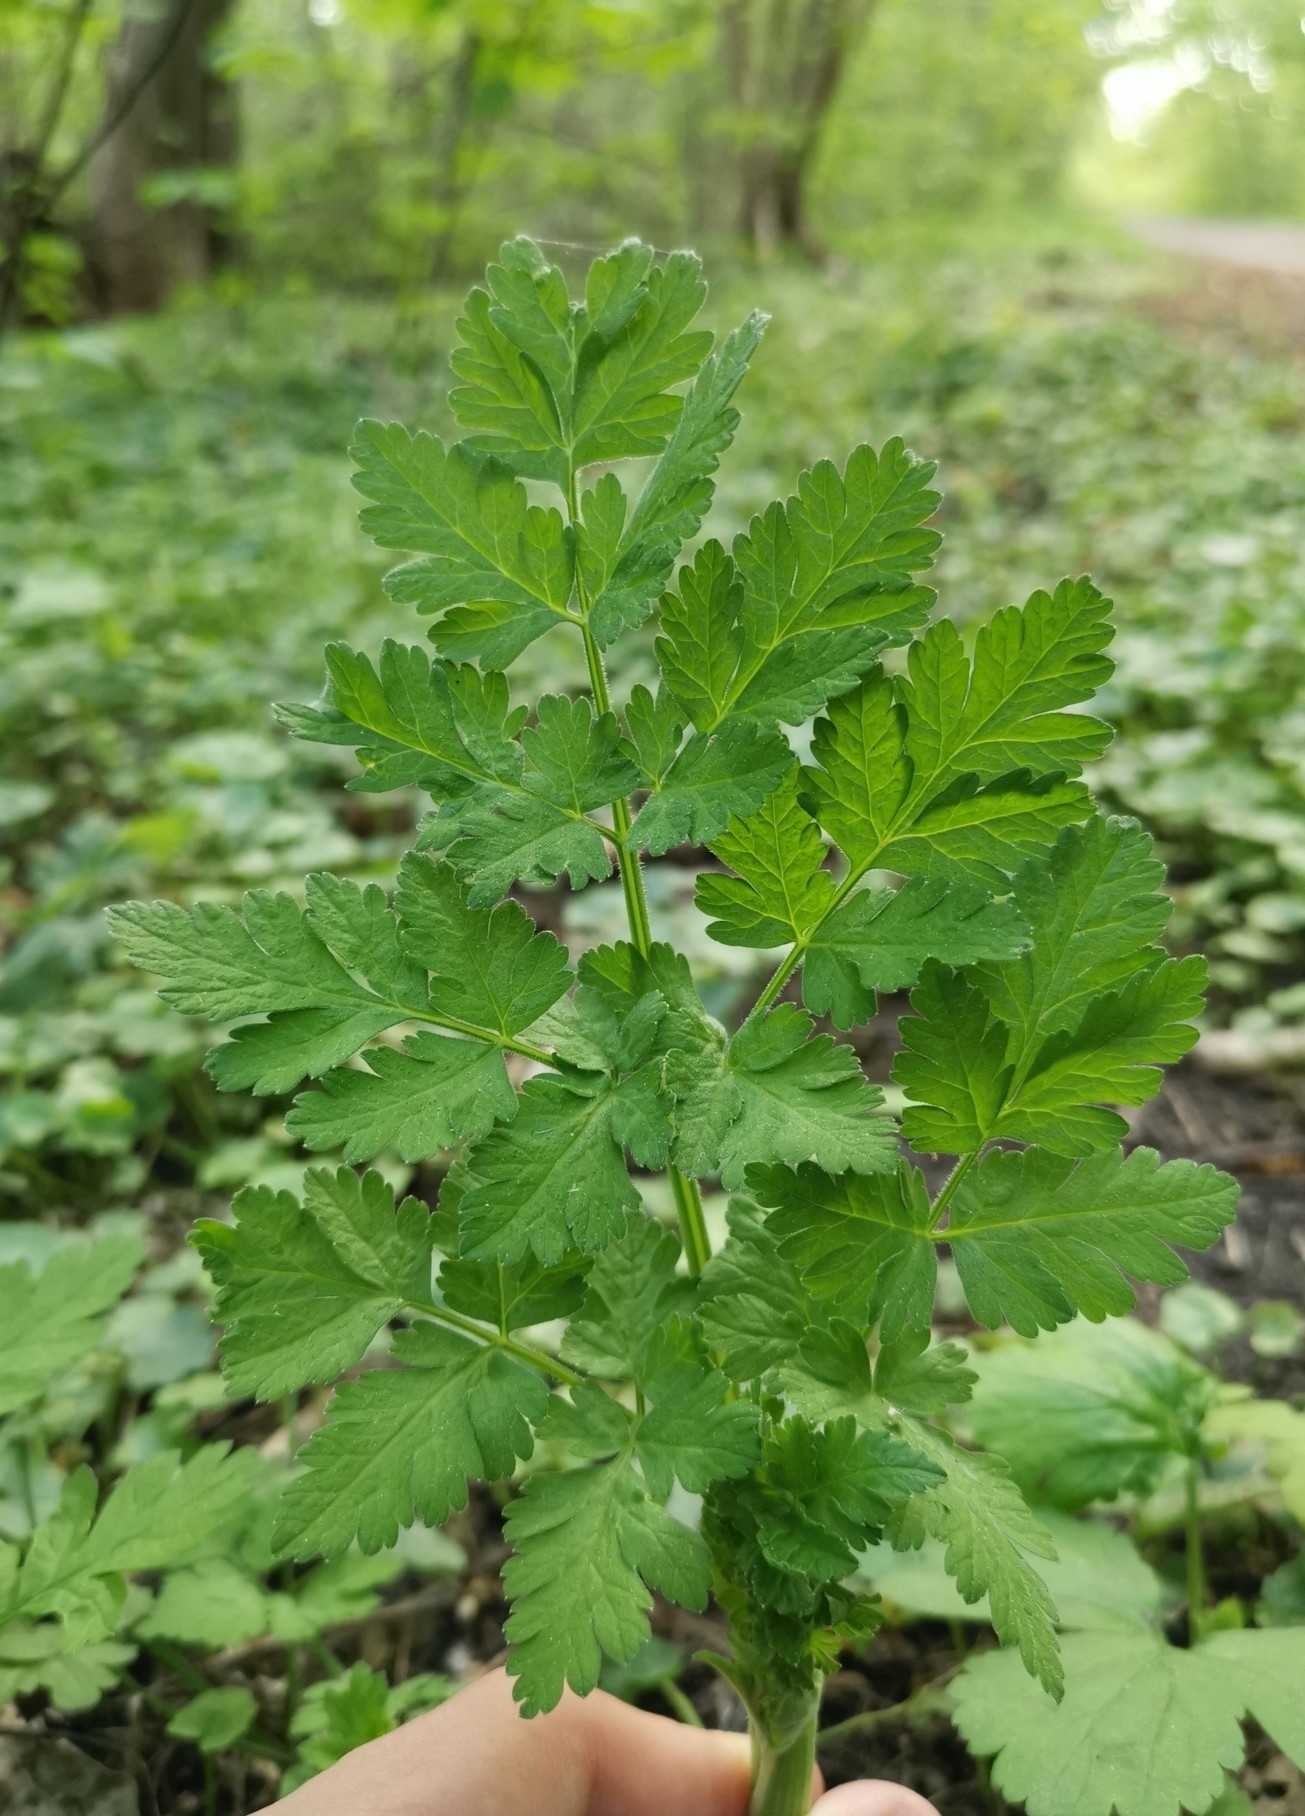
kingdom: Plantae
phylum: Tracheophyta
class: Magnoliopsida
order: Apiales
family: Apiaceae
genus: Chaerophyllum
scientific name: Chaerophyllum temulum
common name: Rough chervil
